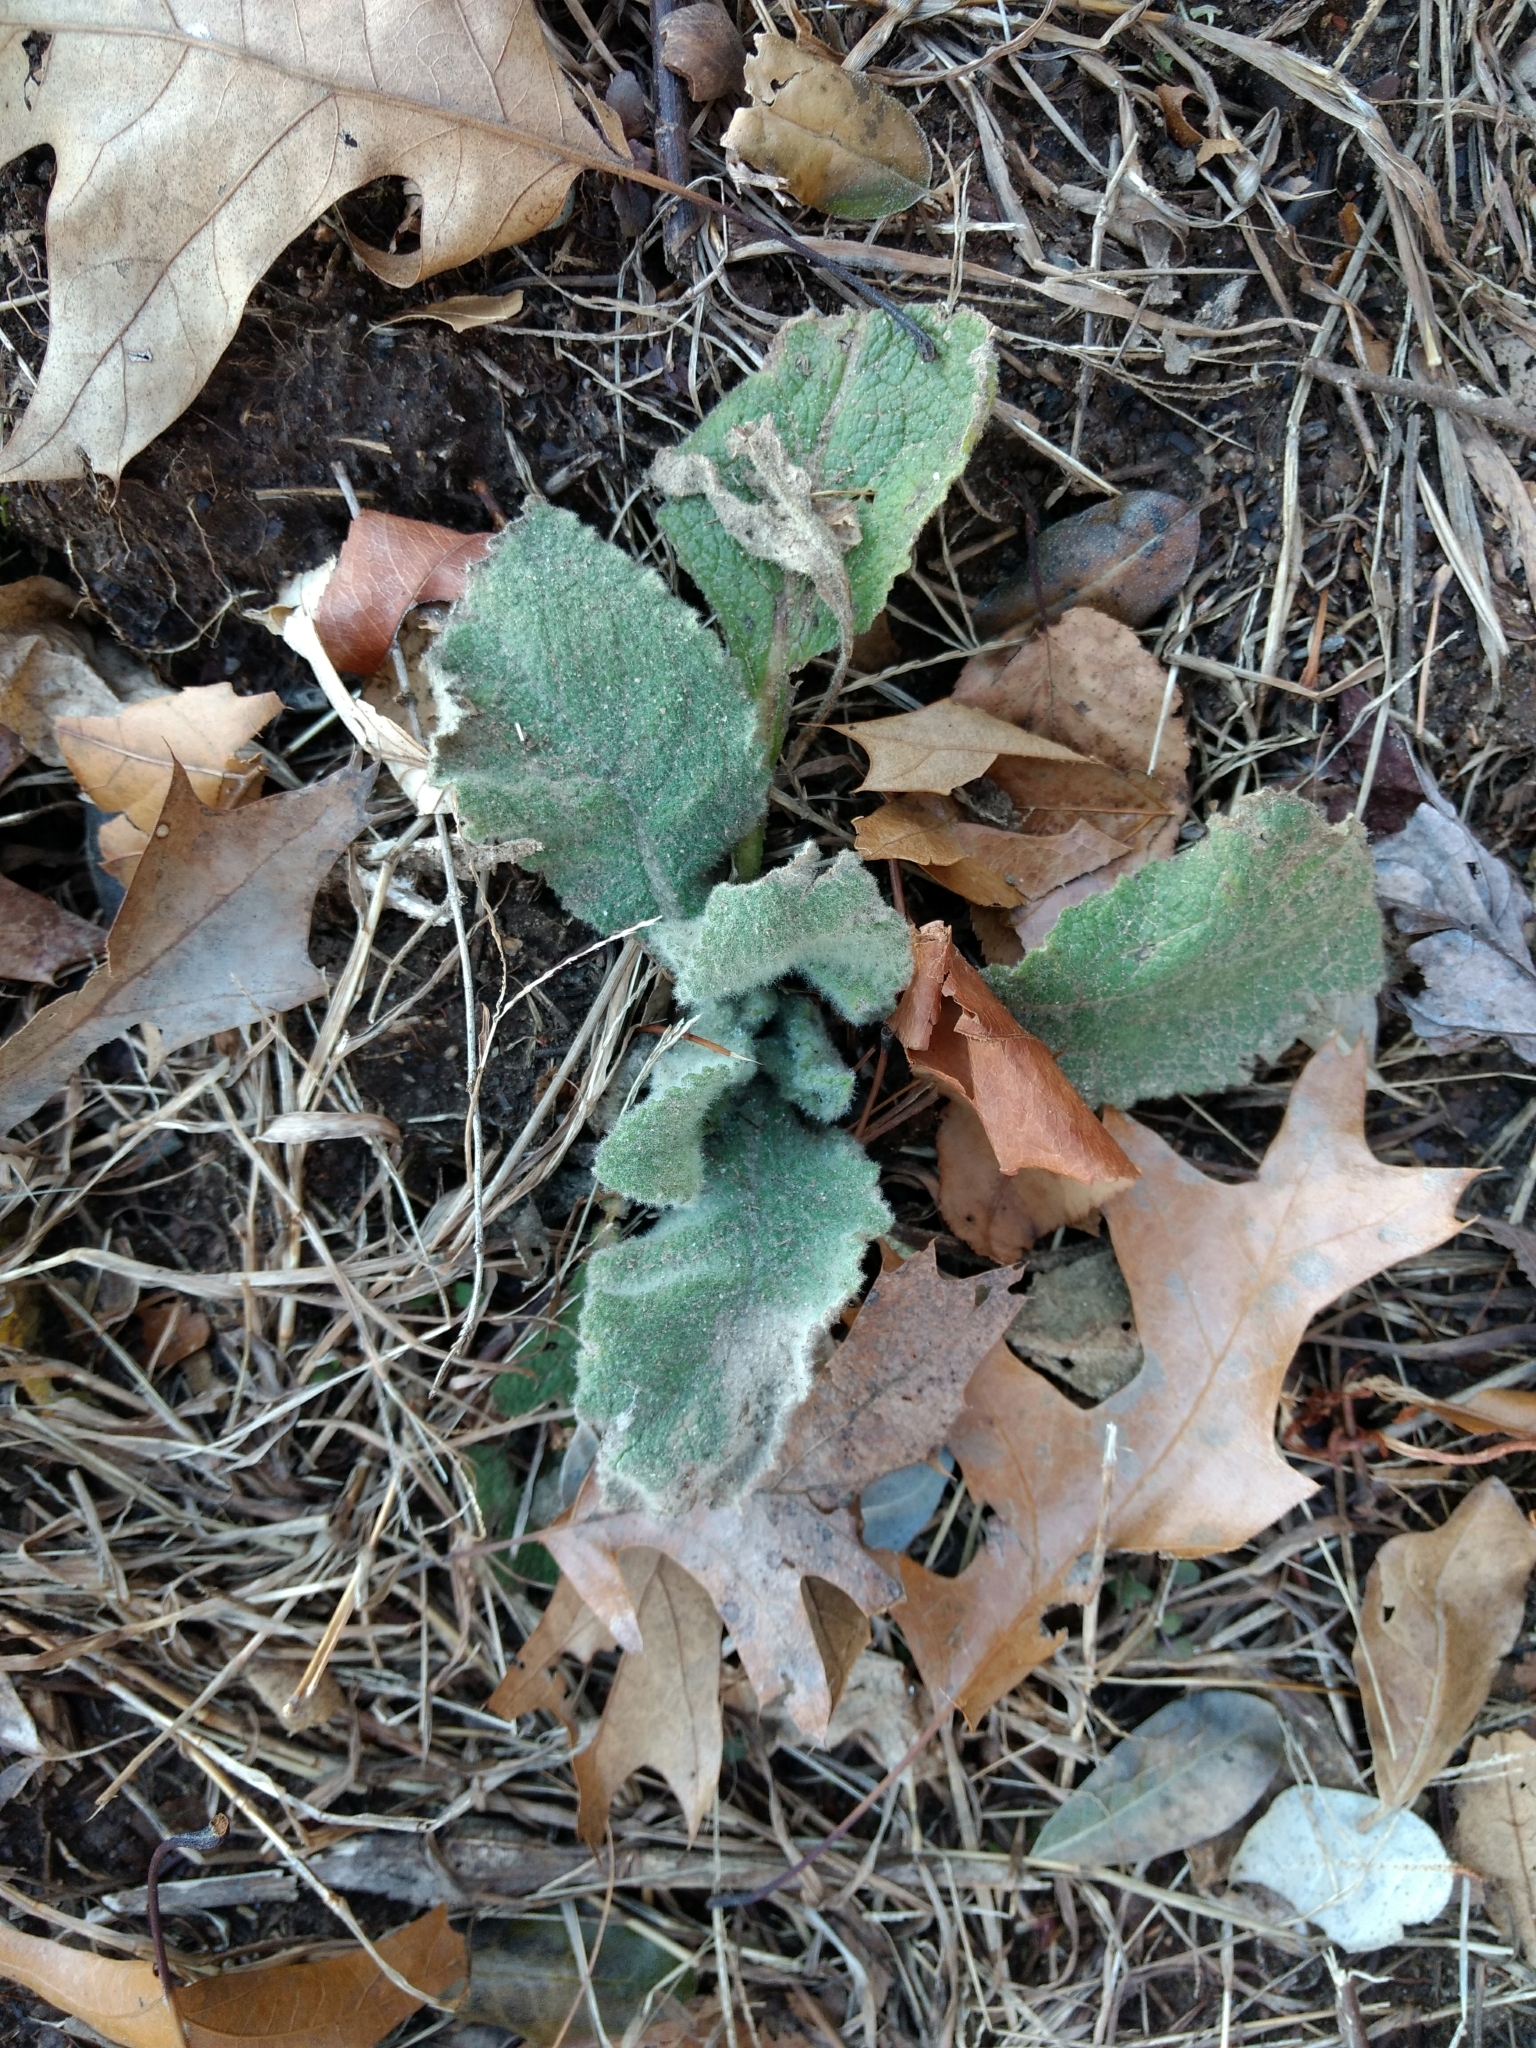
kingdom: Plantae
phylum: Tracheophyta
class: Magnoliopsida
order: Lamiales
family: Scrophulariaceae
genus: Verbascum
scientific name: Verbascum thapsus
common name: Common mullein
